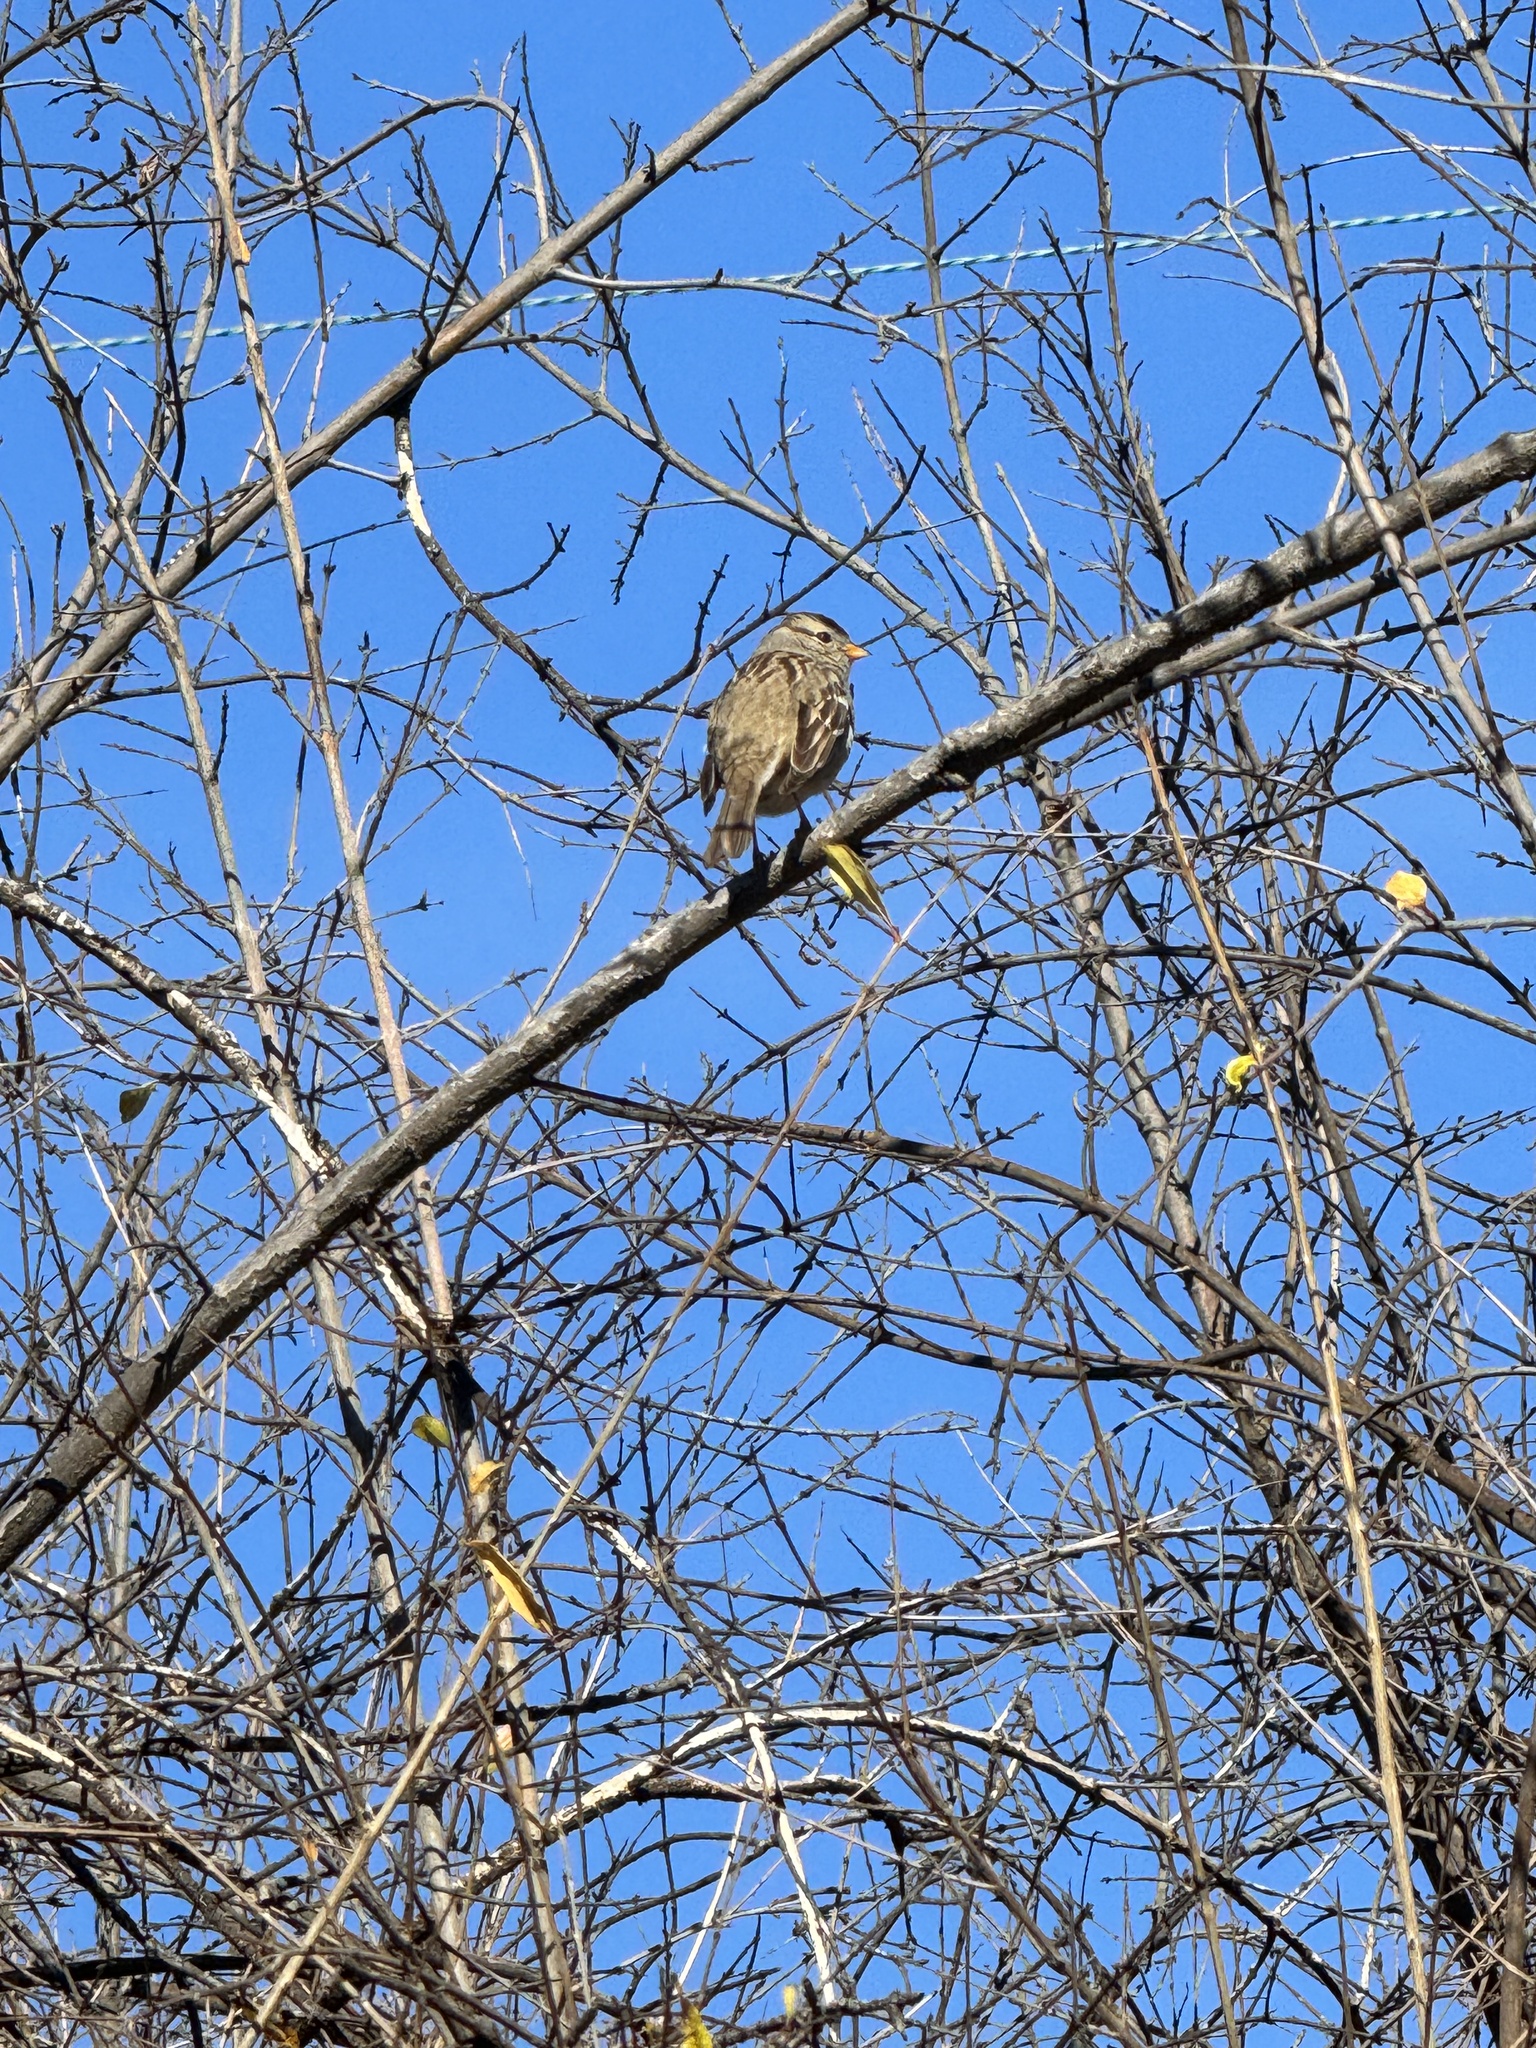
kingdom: Animalia
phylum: Chordata
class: Aves
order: Passeriformes
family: Passerellidae
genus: Zonotrichia
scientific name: Zonotrichia leucophrys
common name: White-crowned sparrow
